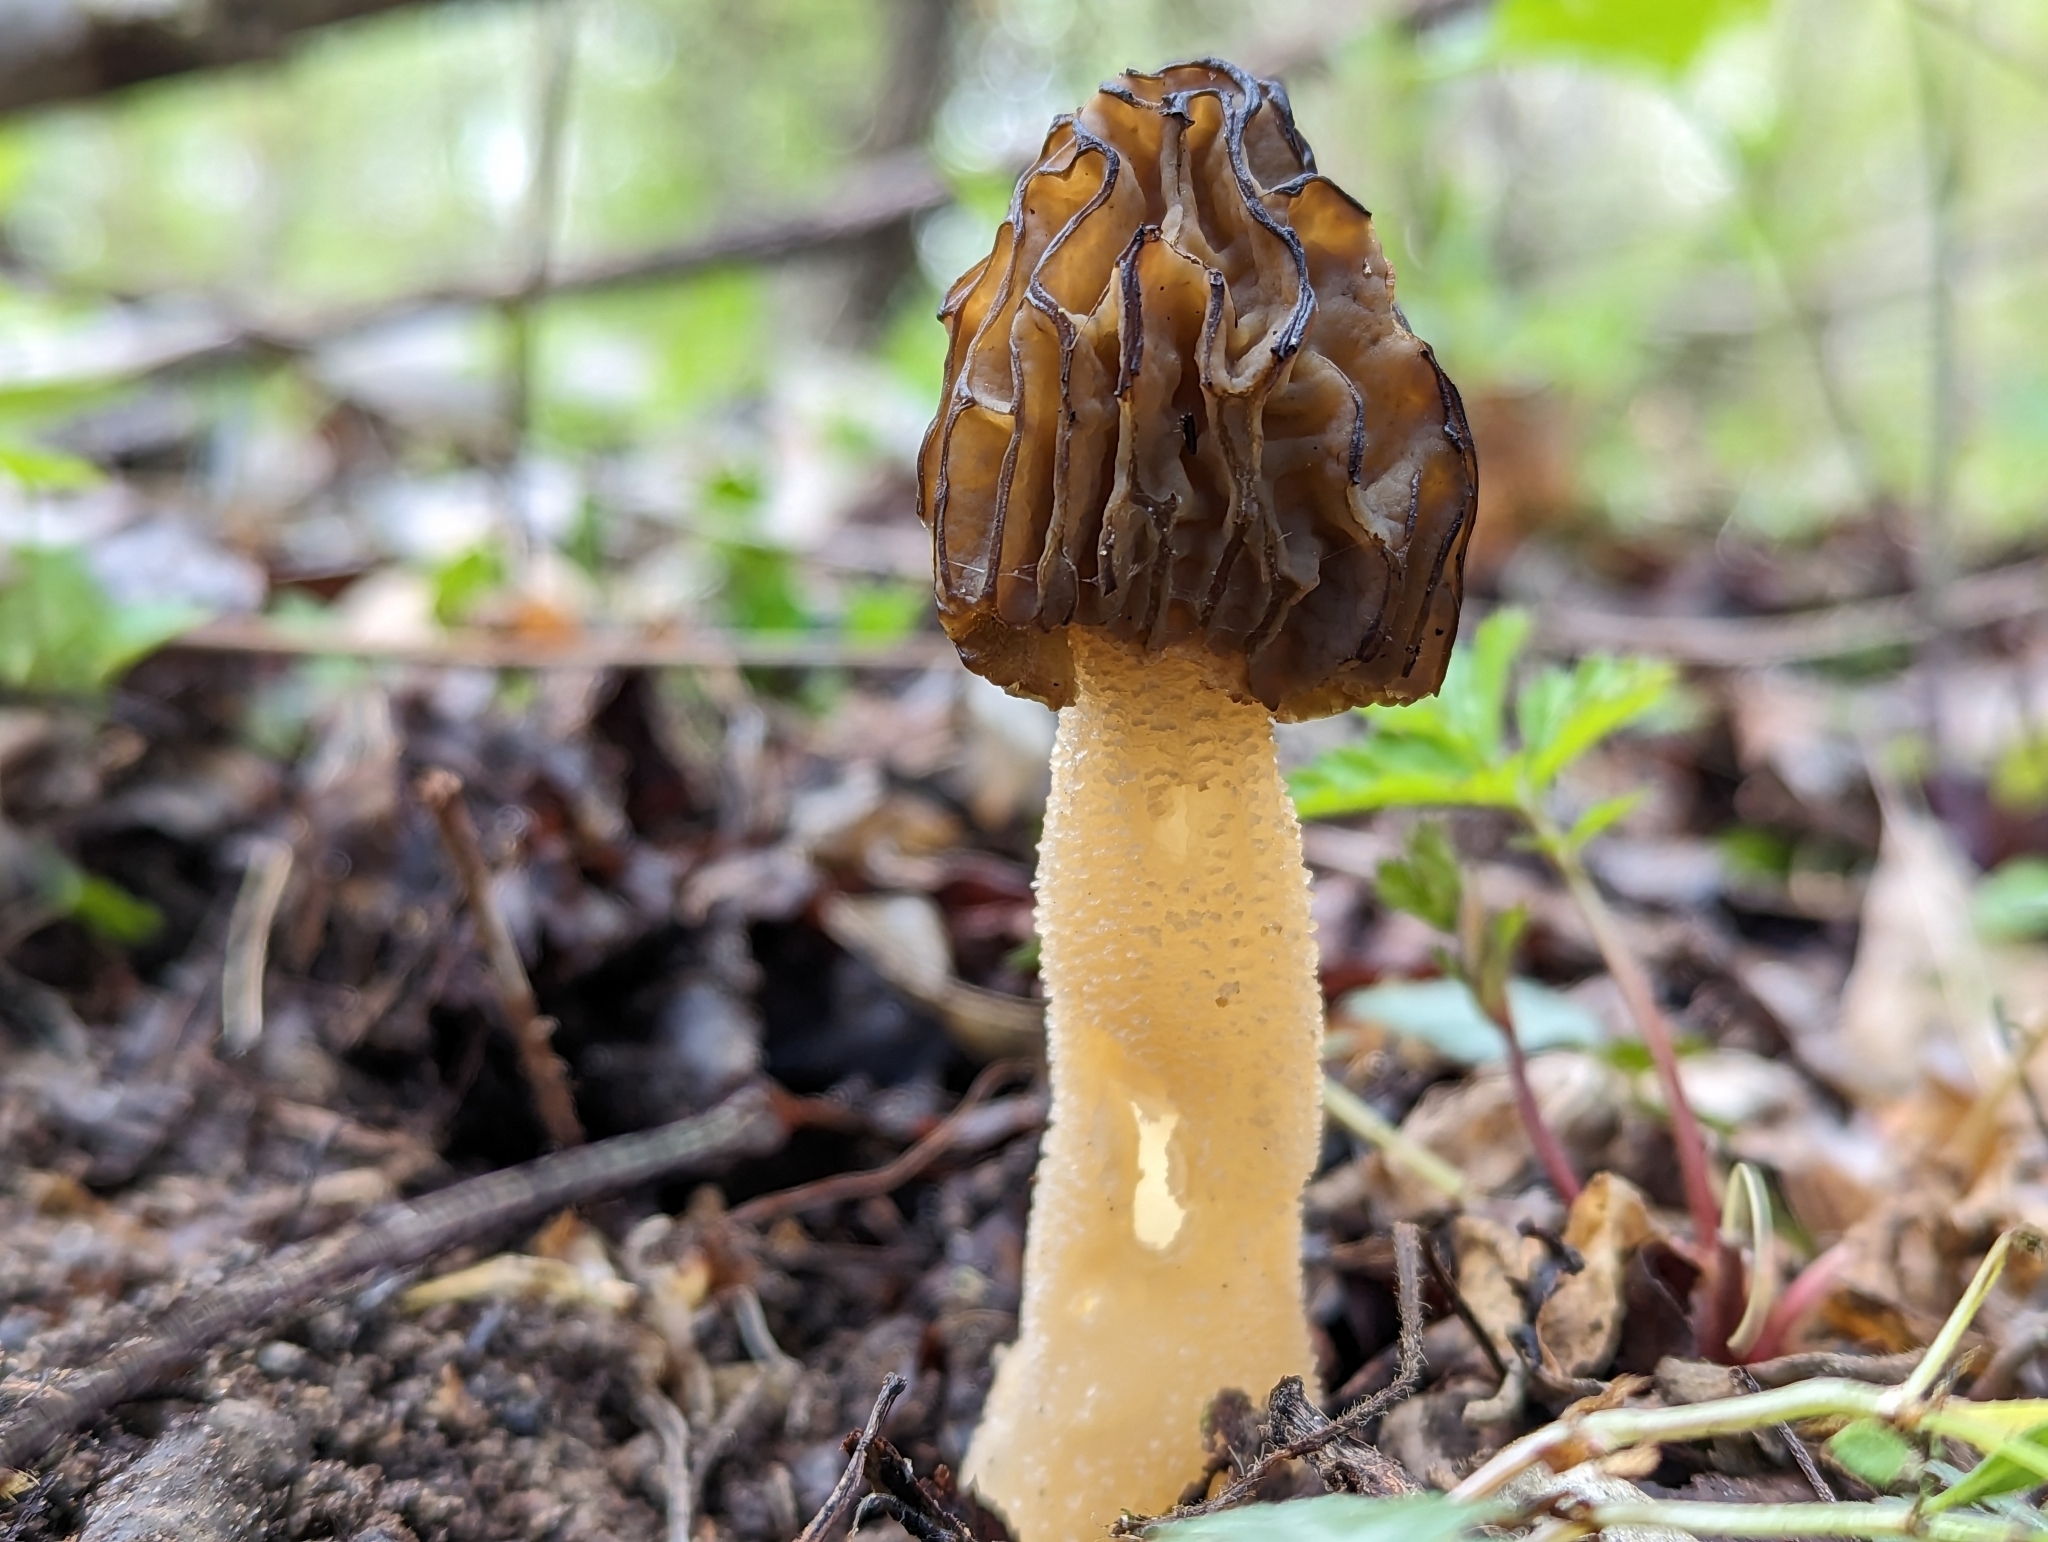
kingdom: Fungi
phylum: Ascomycota
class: Pezizomycetes
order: Pezizales
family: Morchellaceae
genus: Morchella
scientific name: Morchella punctipes
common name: Half-free morel
